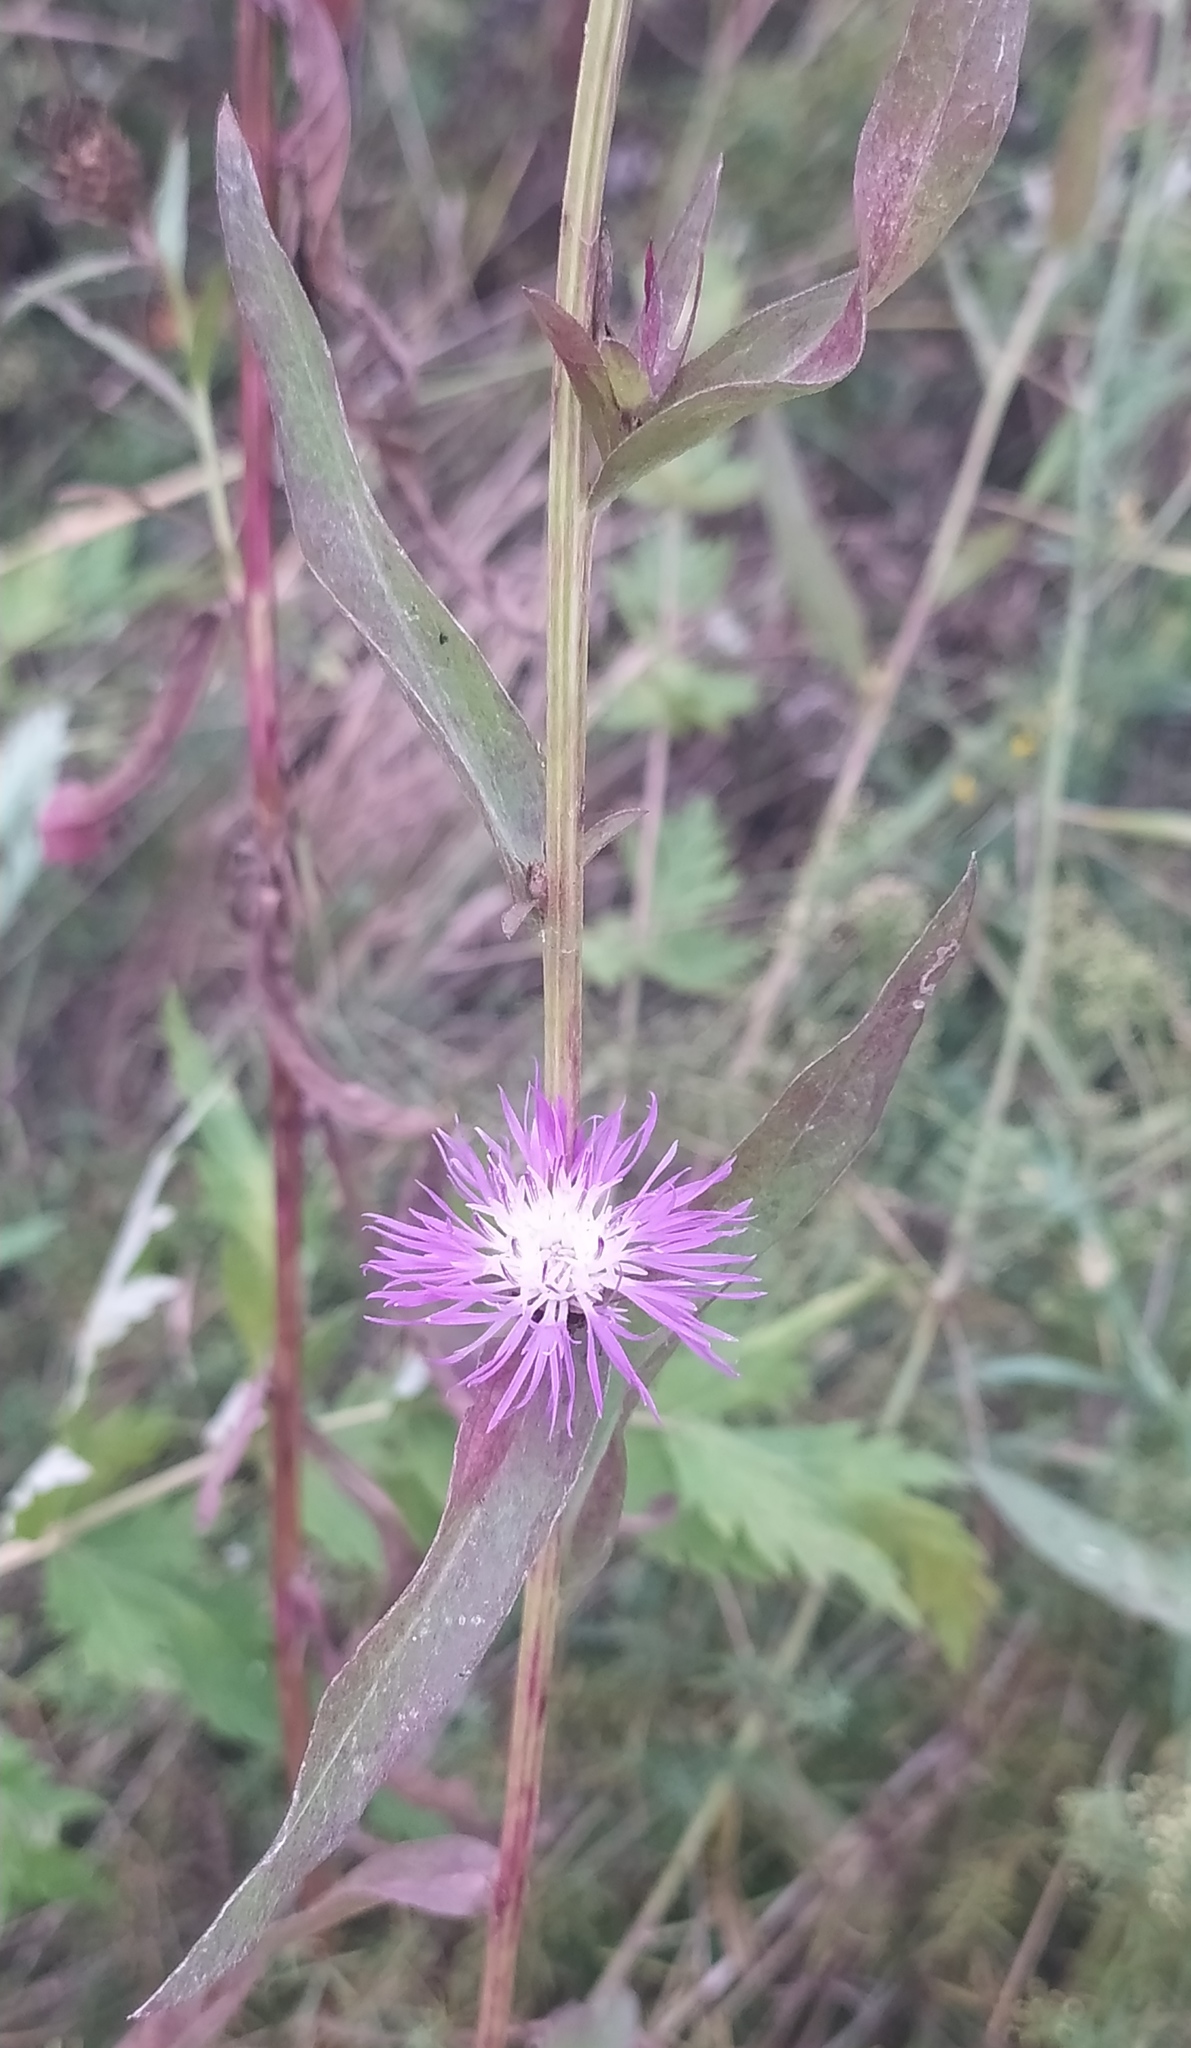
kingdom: Plantae
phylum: Tracheophyta
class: Magnoliopsida
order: Asterales
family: Asteraceae
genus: Centaurea
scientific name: Centaurea jacea
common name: Brown knapweed
